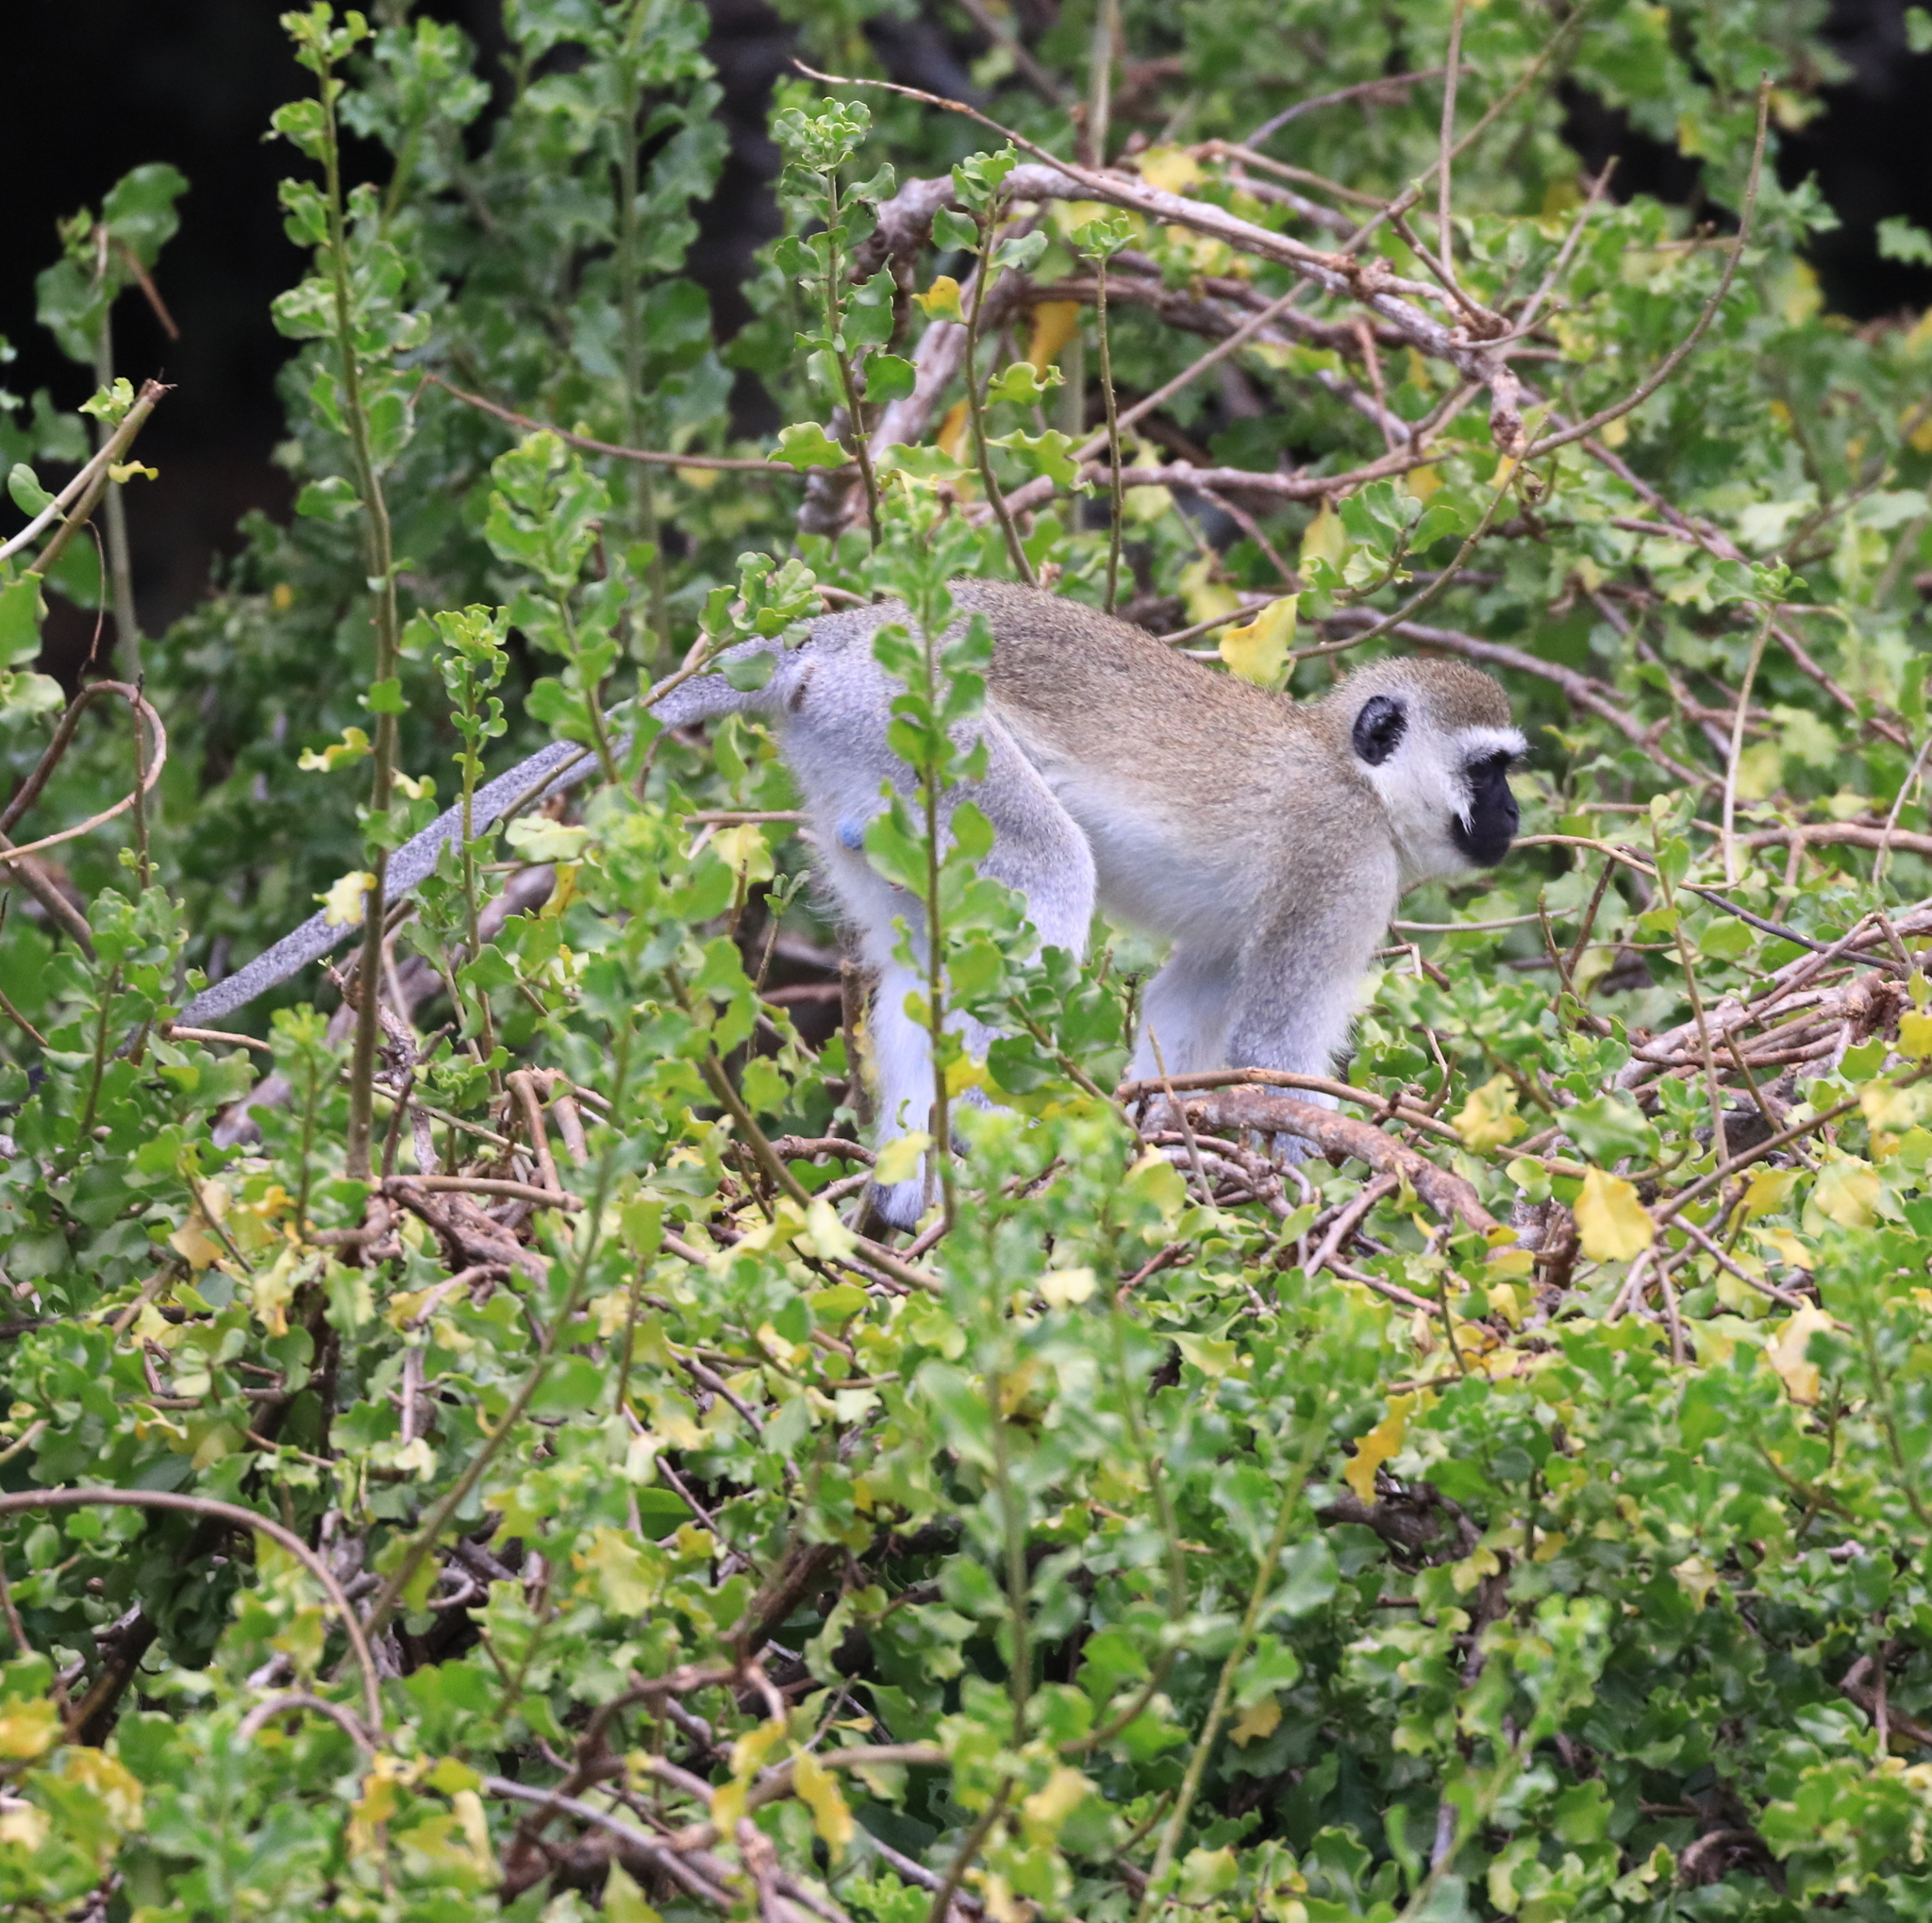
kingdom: Animalia
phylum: Chordata
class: Mammalia
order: Primates
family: Cercopithecidae
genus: Chlorocebus
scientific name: Chlorocebus pygerythrus
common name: Vervet monkey
